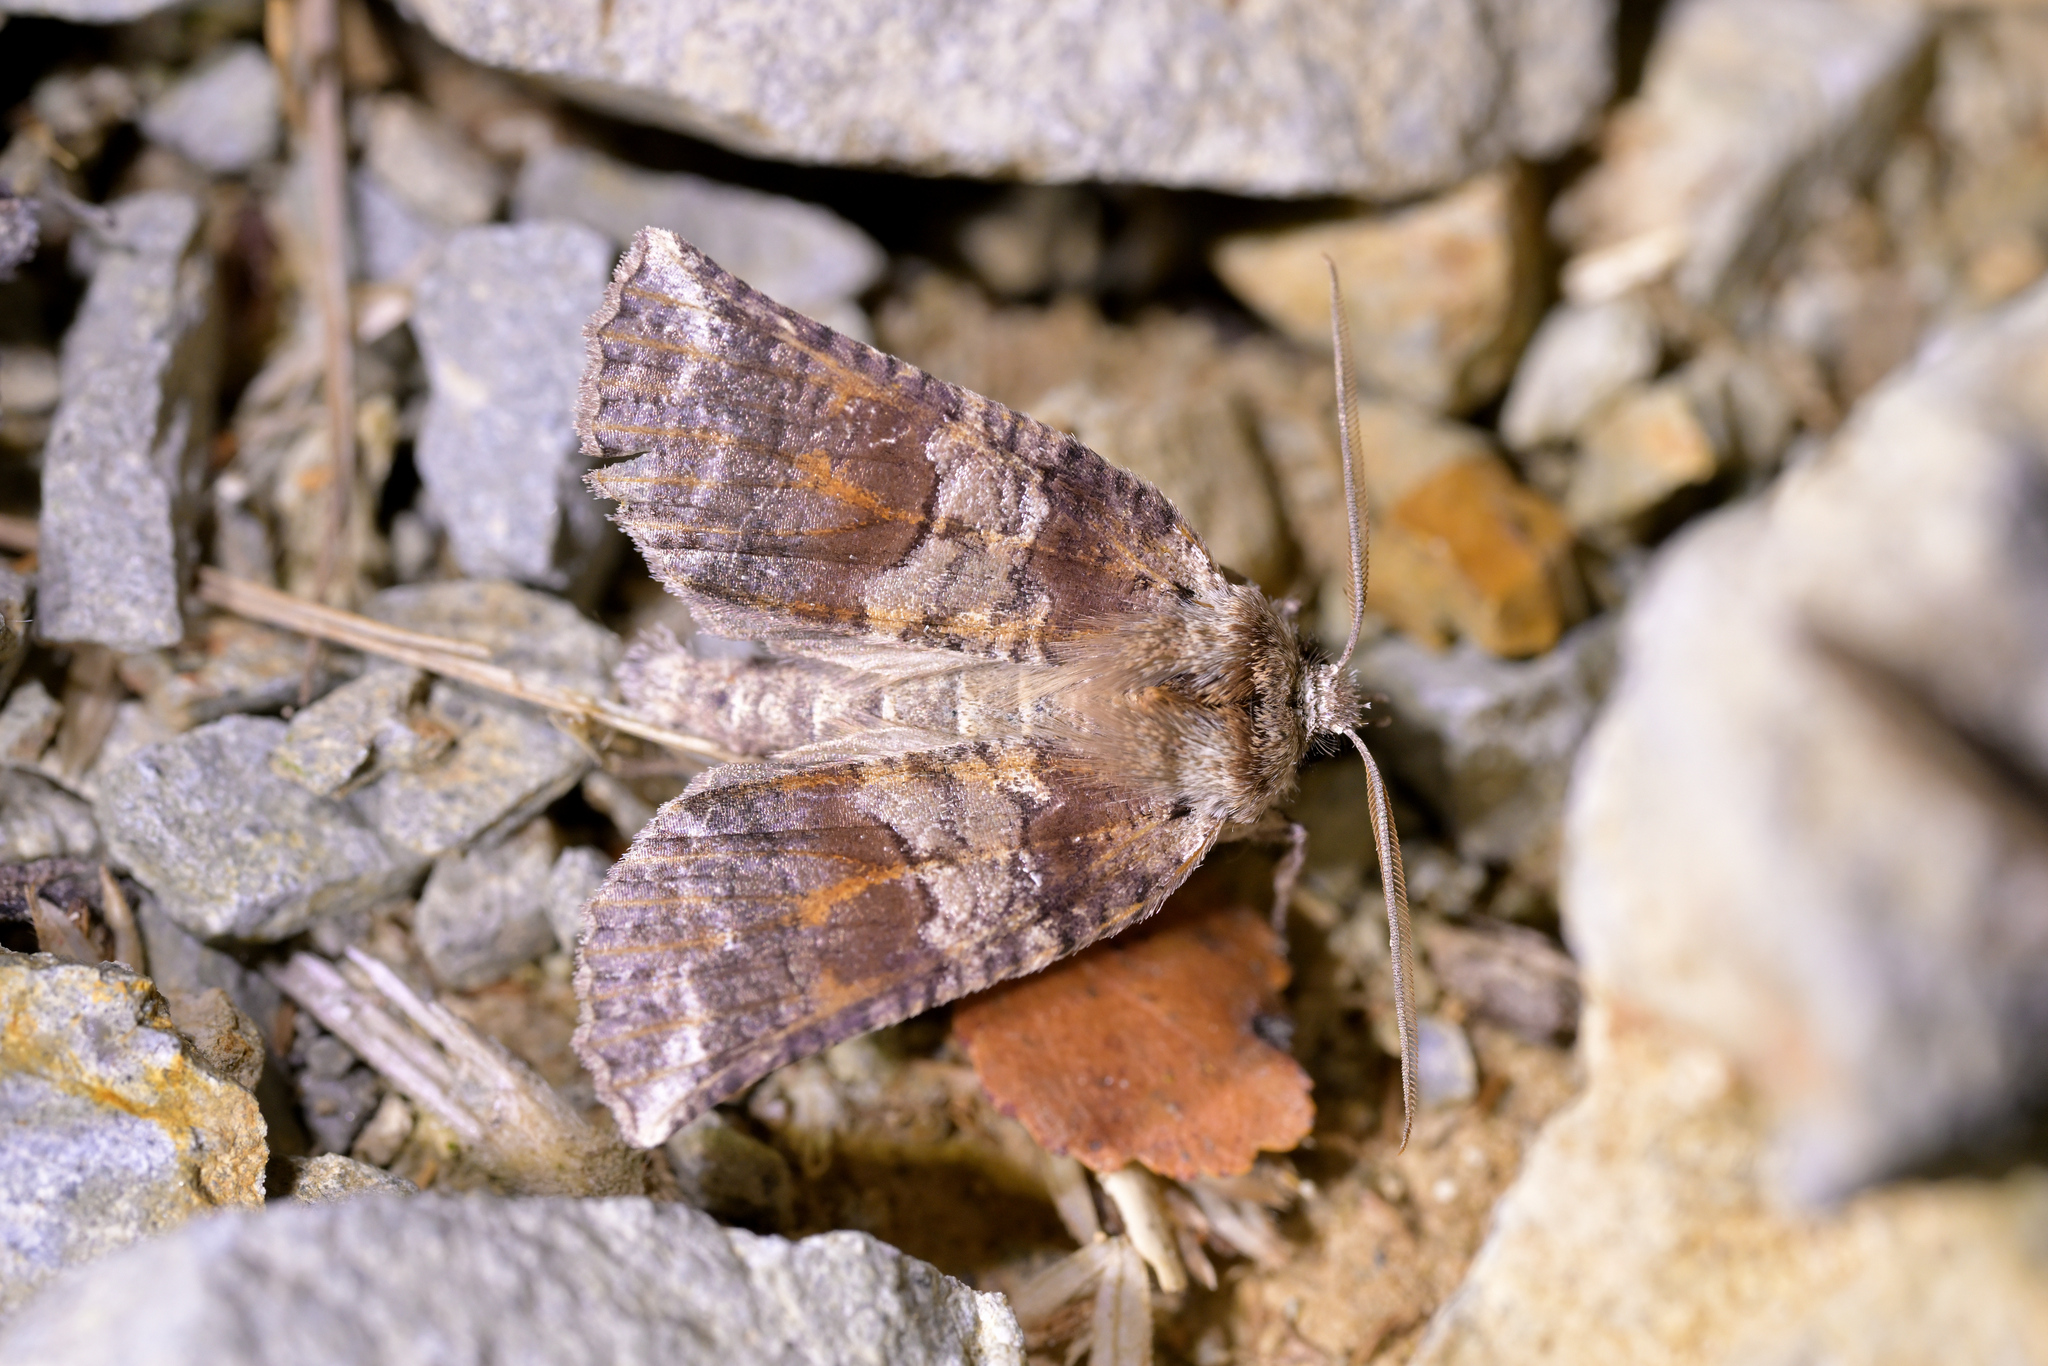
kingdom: Animalia
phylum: Arthropoda
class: Insecta
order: Lepidoptera
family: Geometridae
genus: Declana
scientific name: Declana
